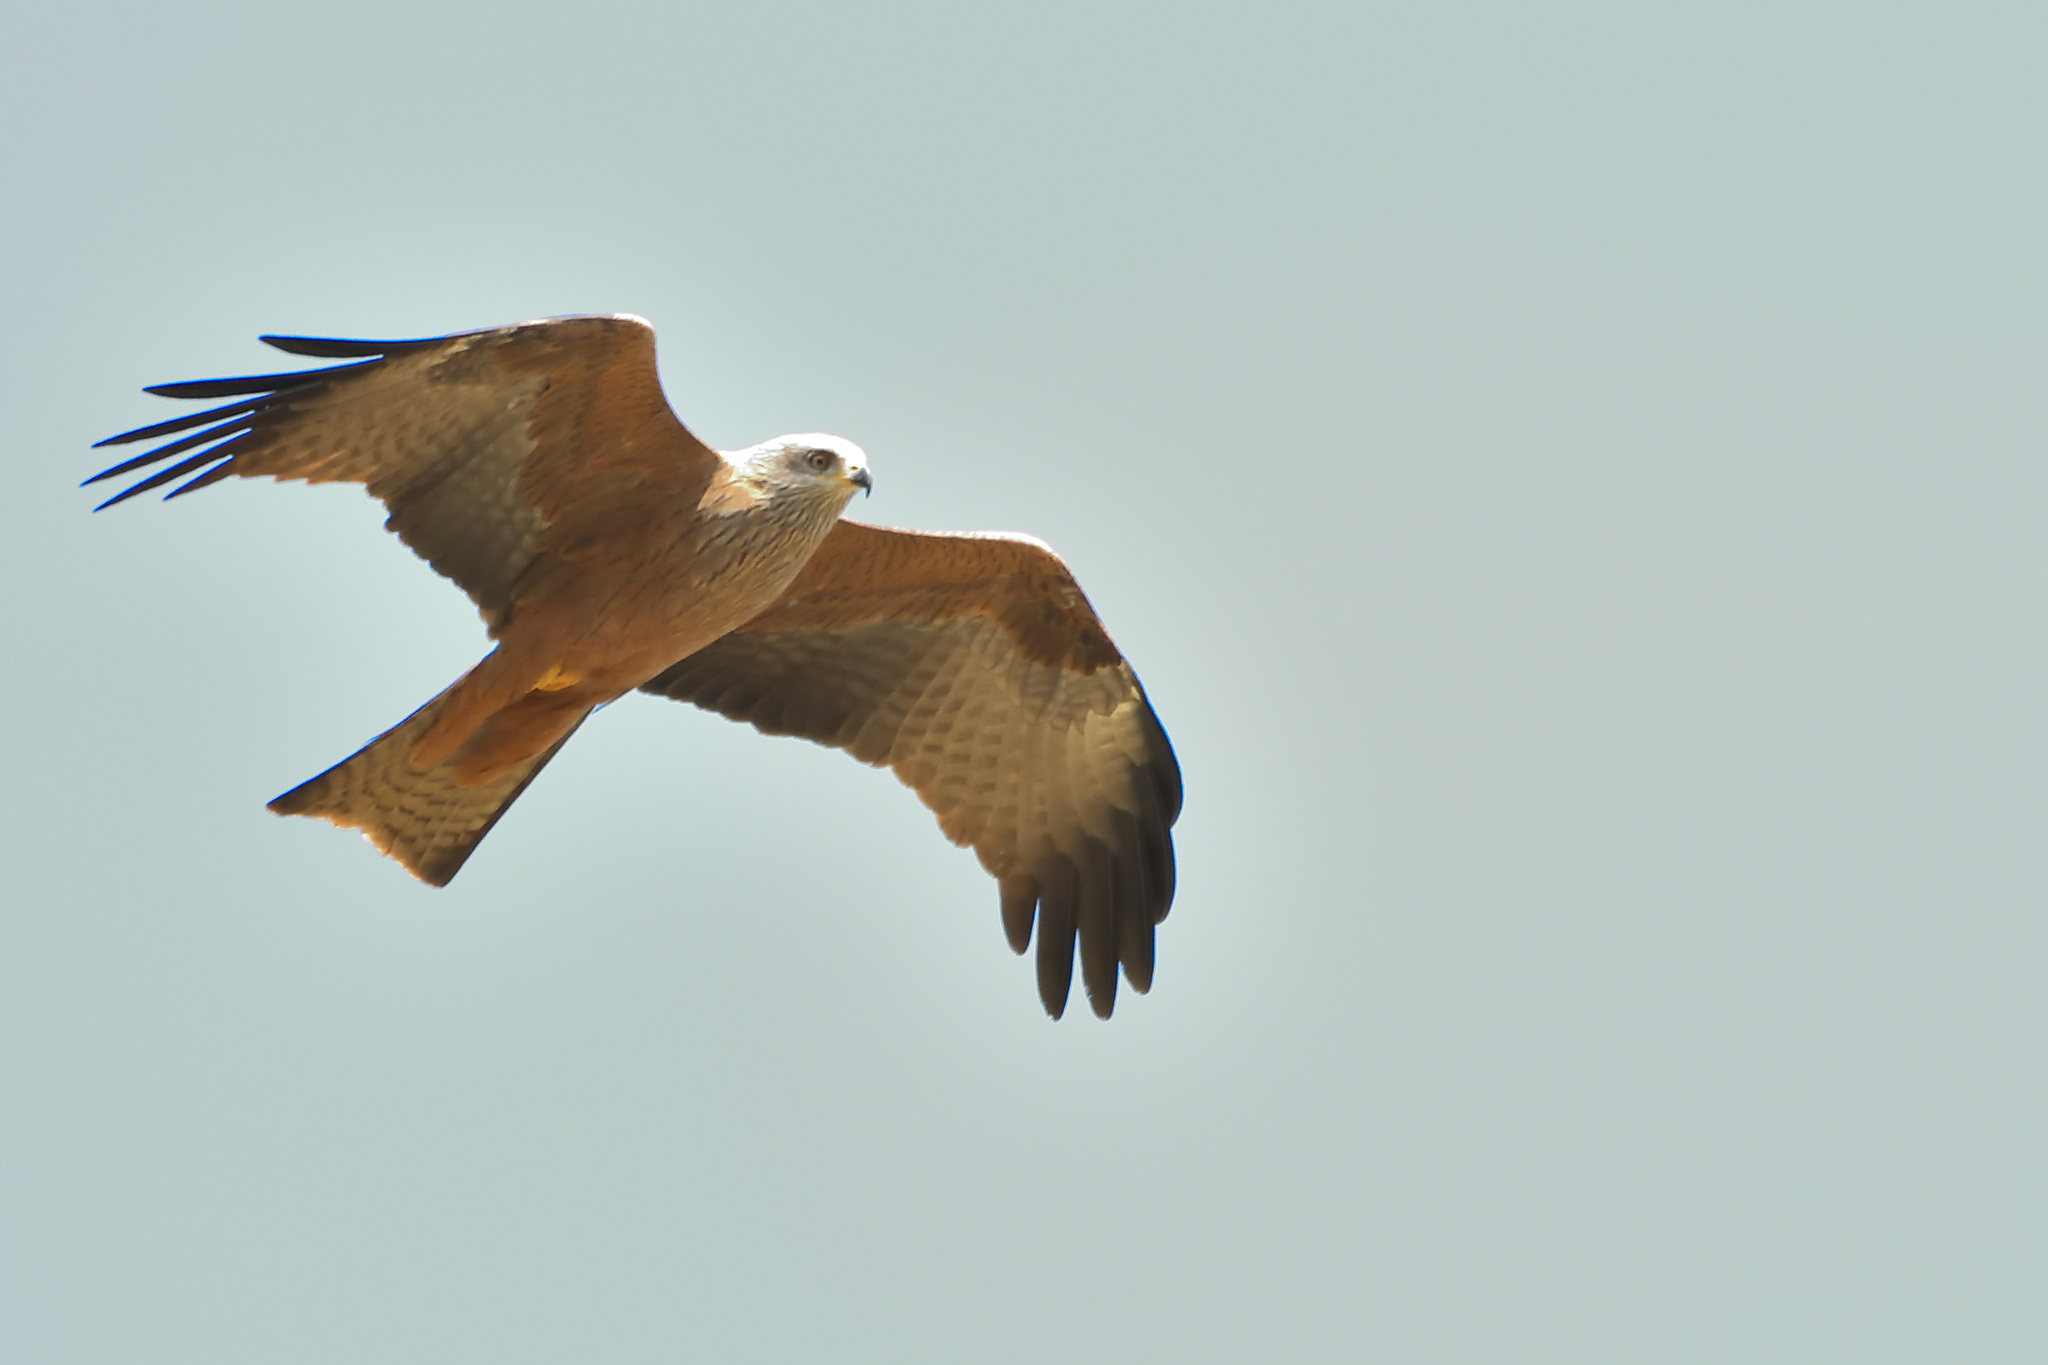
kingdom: Animalia
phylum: Chordata
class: Aves
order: Accipitriformes
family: Accipitridae
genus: Milvus
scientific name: Milvus migrans
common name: Black kite
